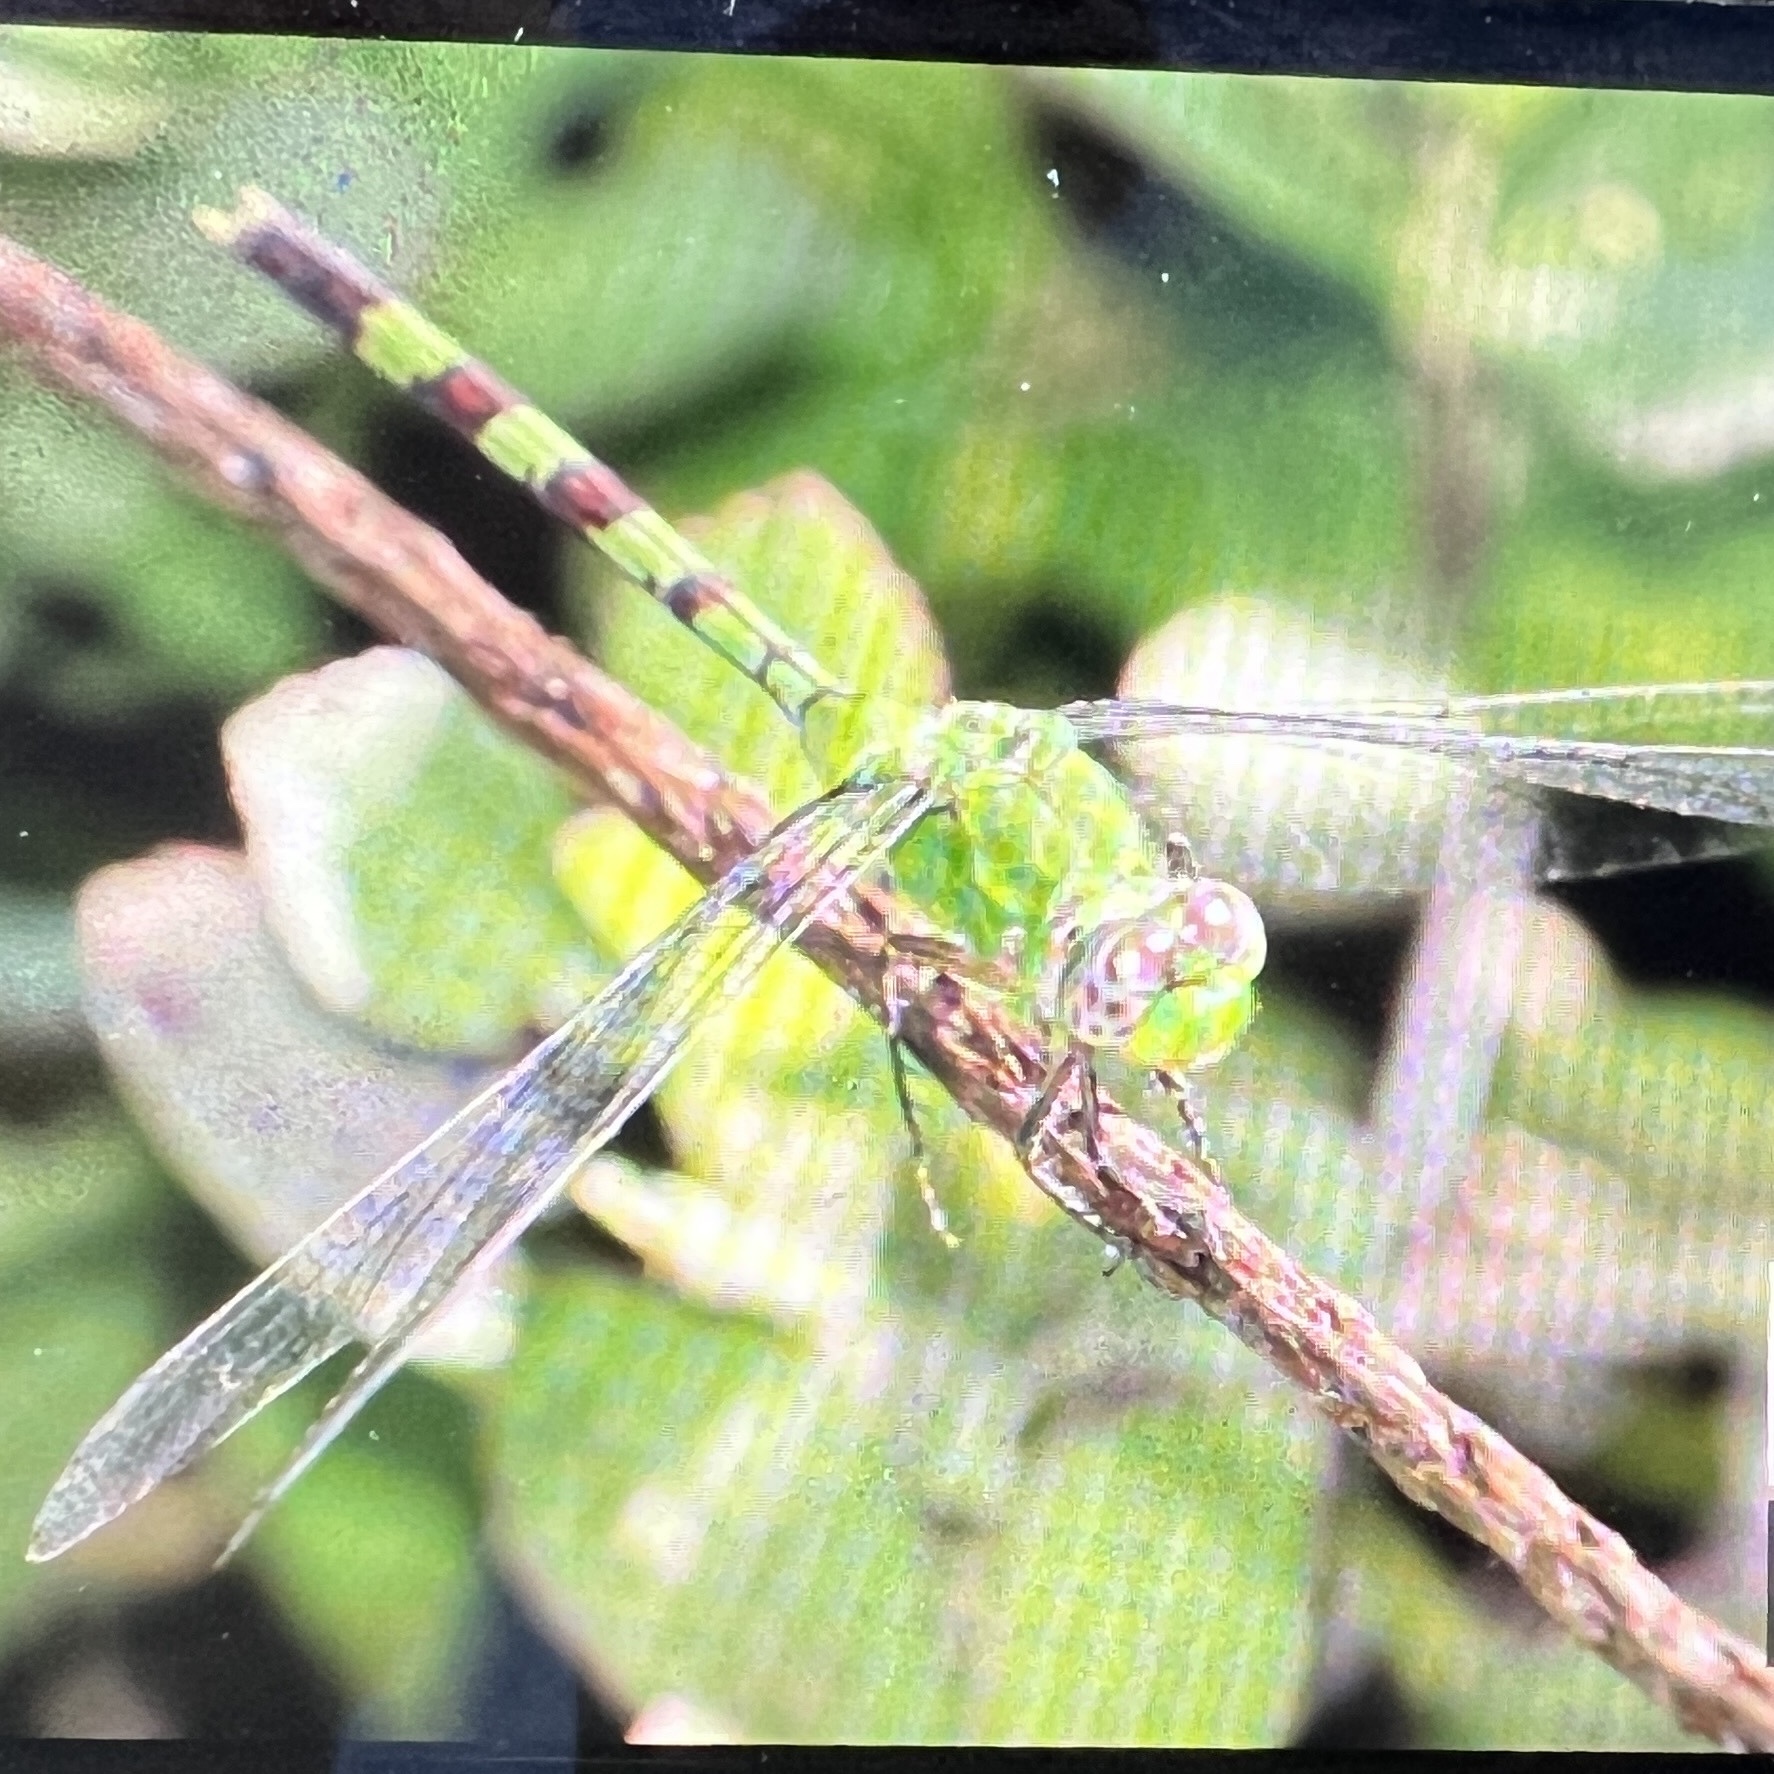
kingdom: Animalia
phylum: Arthropoda
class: Insecta
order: Odonata
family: Libellulidae
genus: Erythemis
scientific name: Erythemis vesiculosa
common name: Great pondhawk
